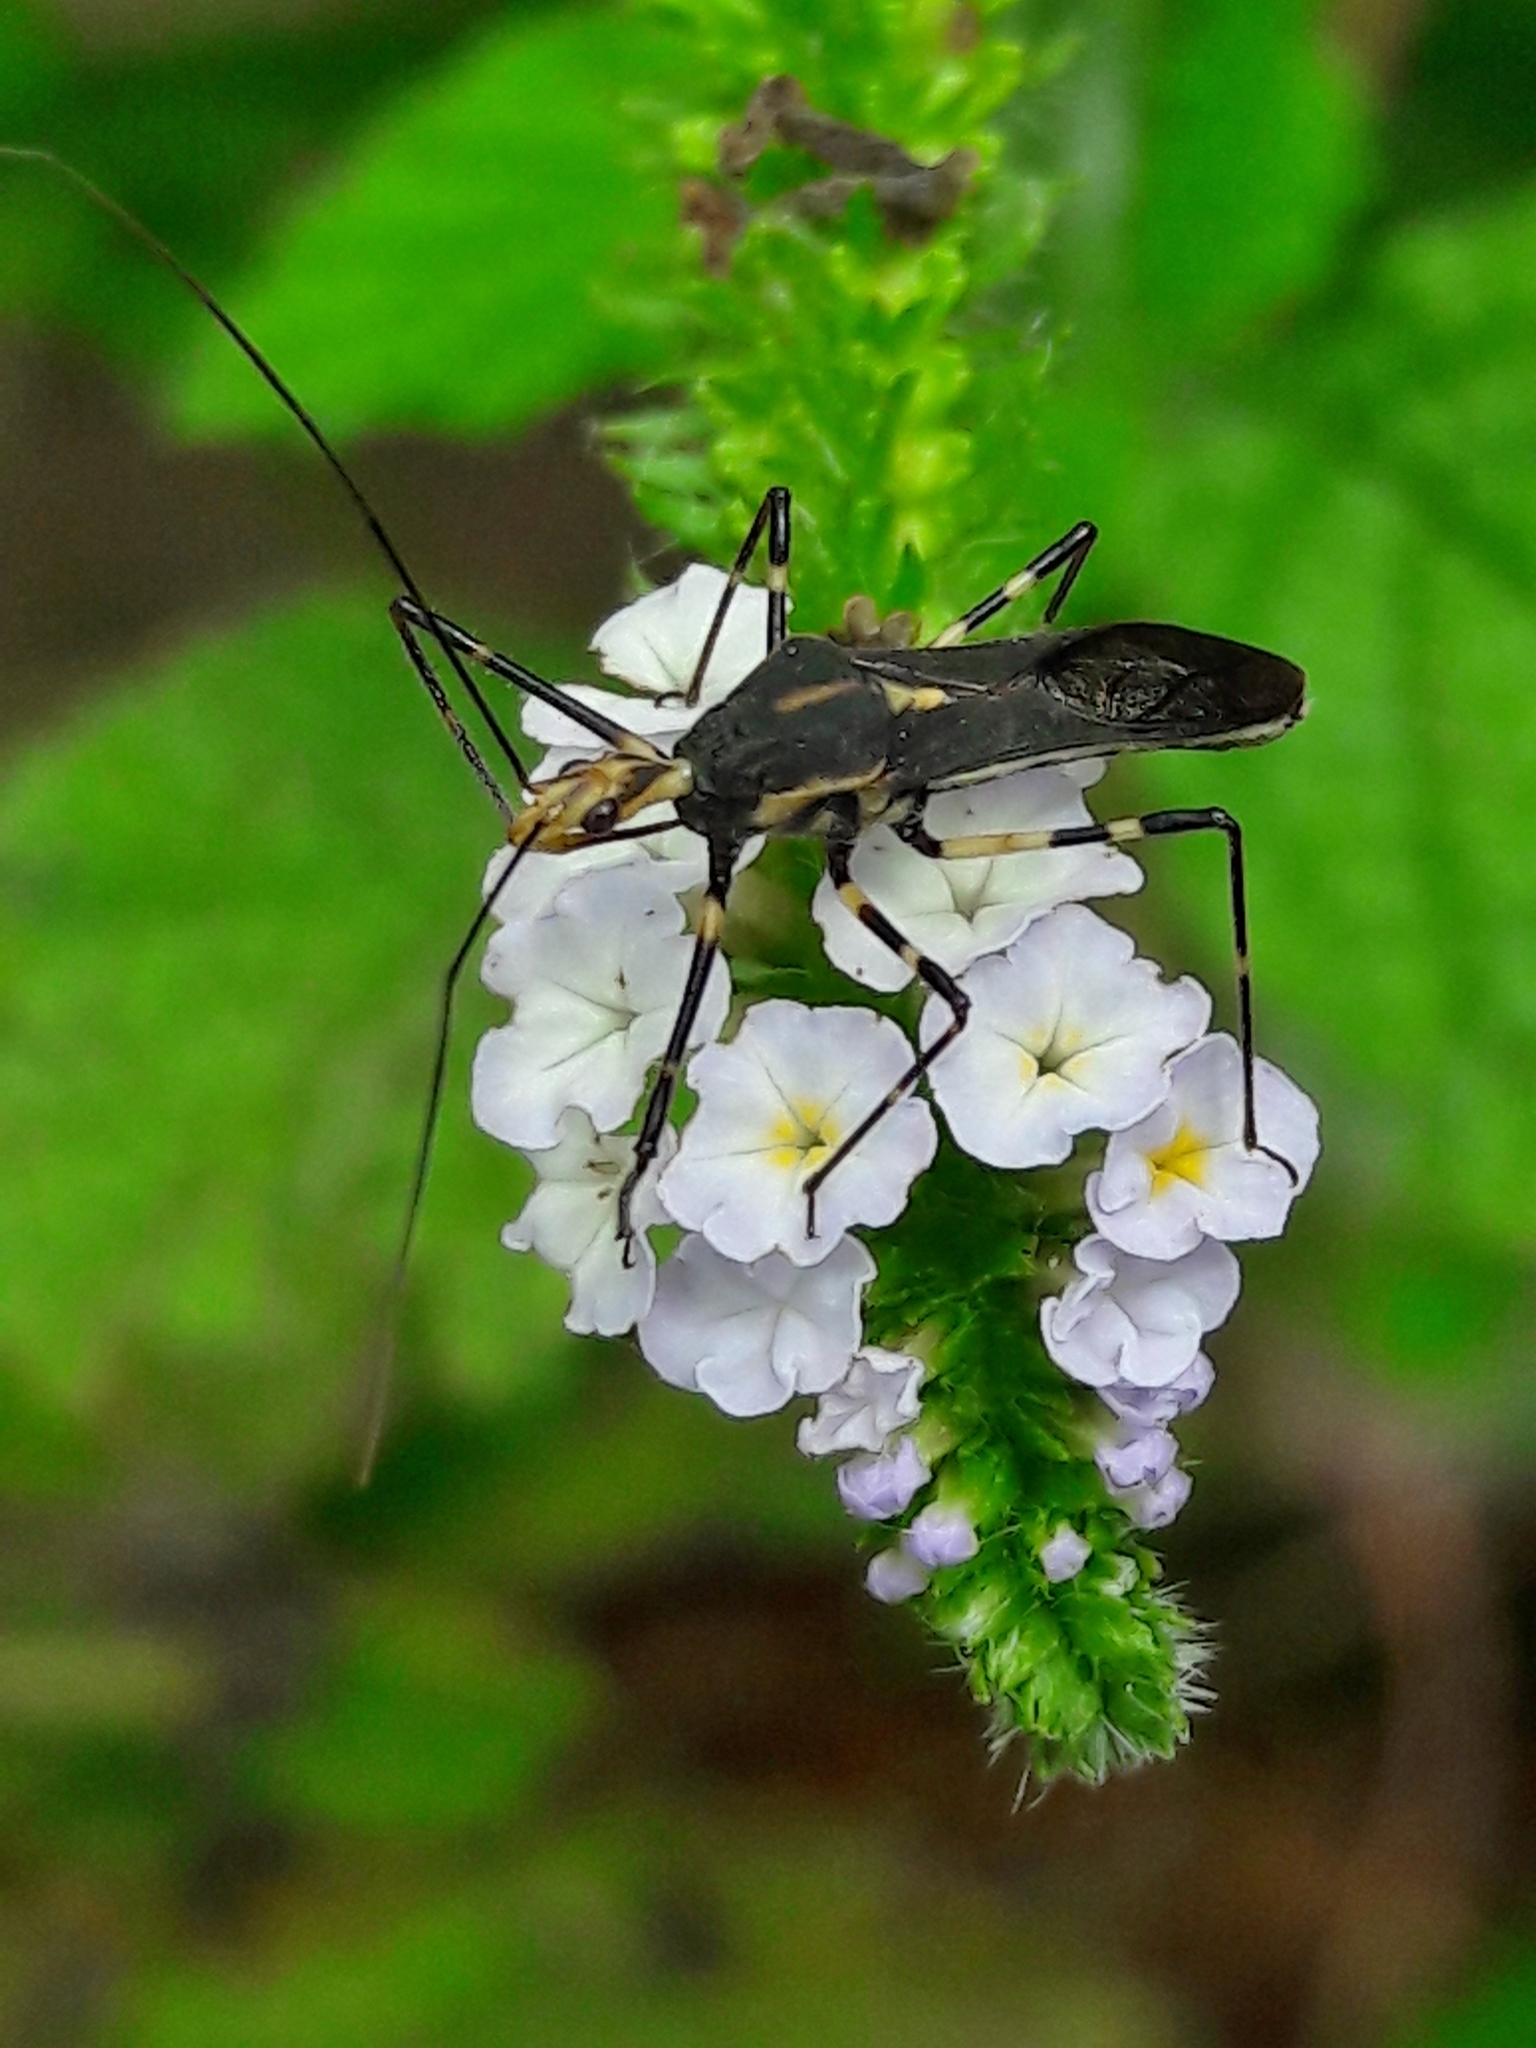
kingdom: Animalia
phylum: Arthropoda
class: Insecta
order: Hemiptera
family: Reduviidae
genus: Zelus
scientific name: Zelus laticornis
